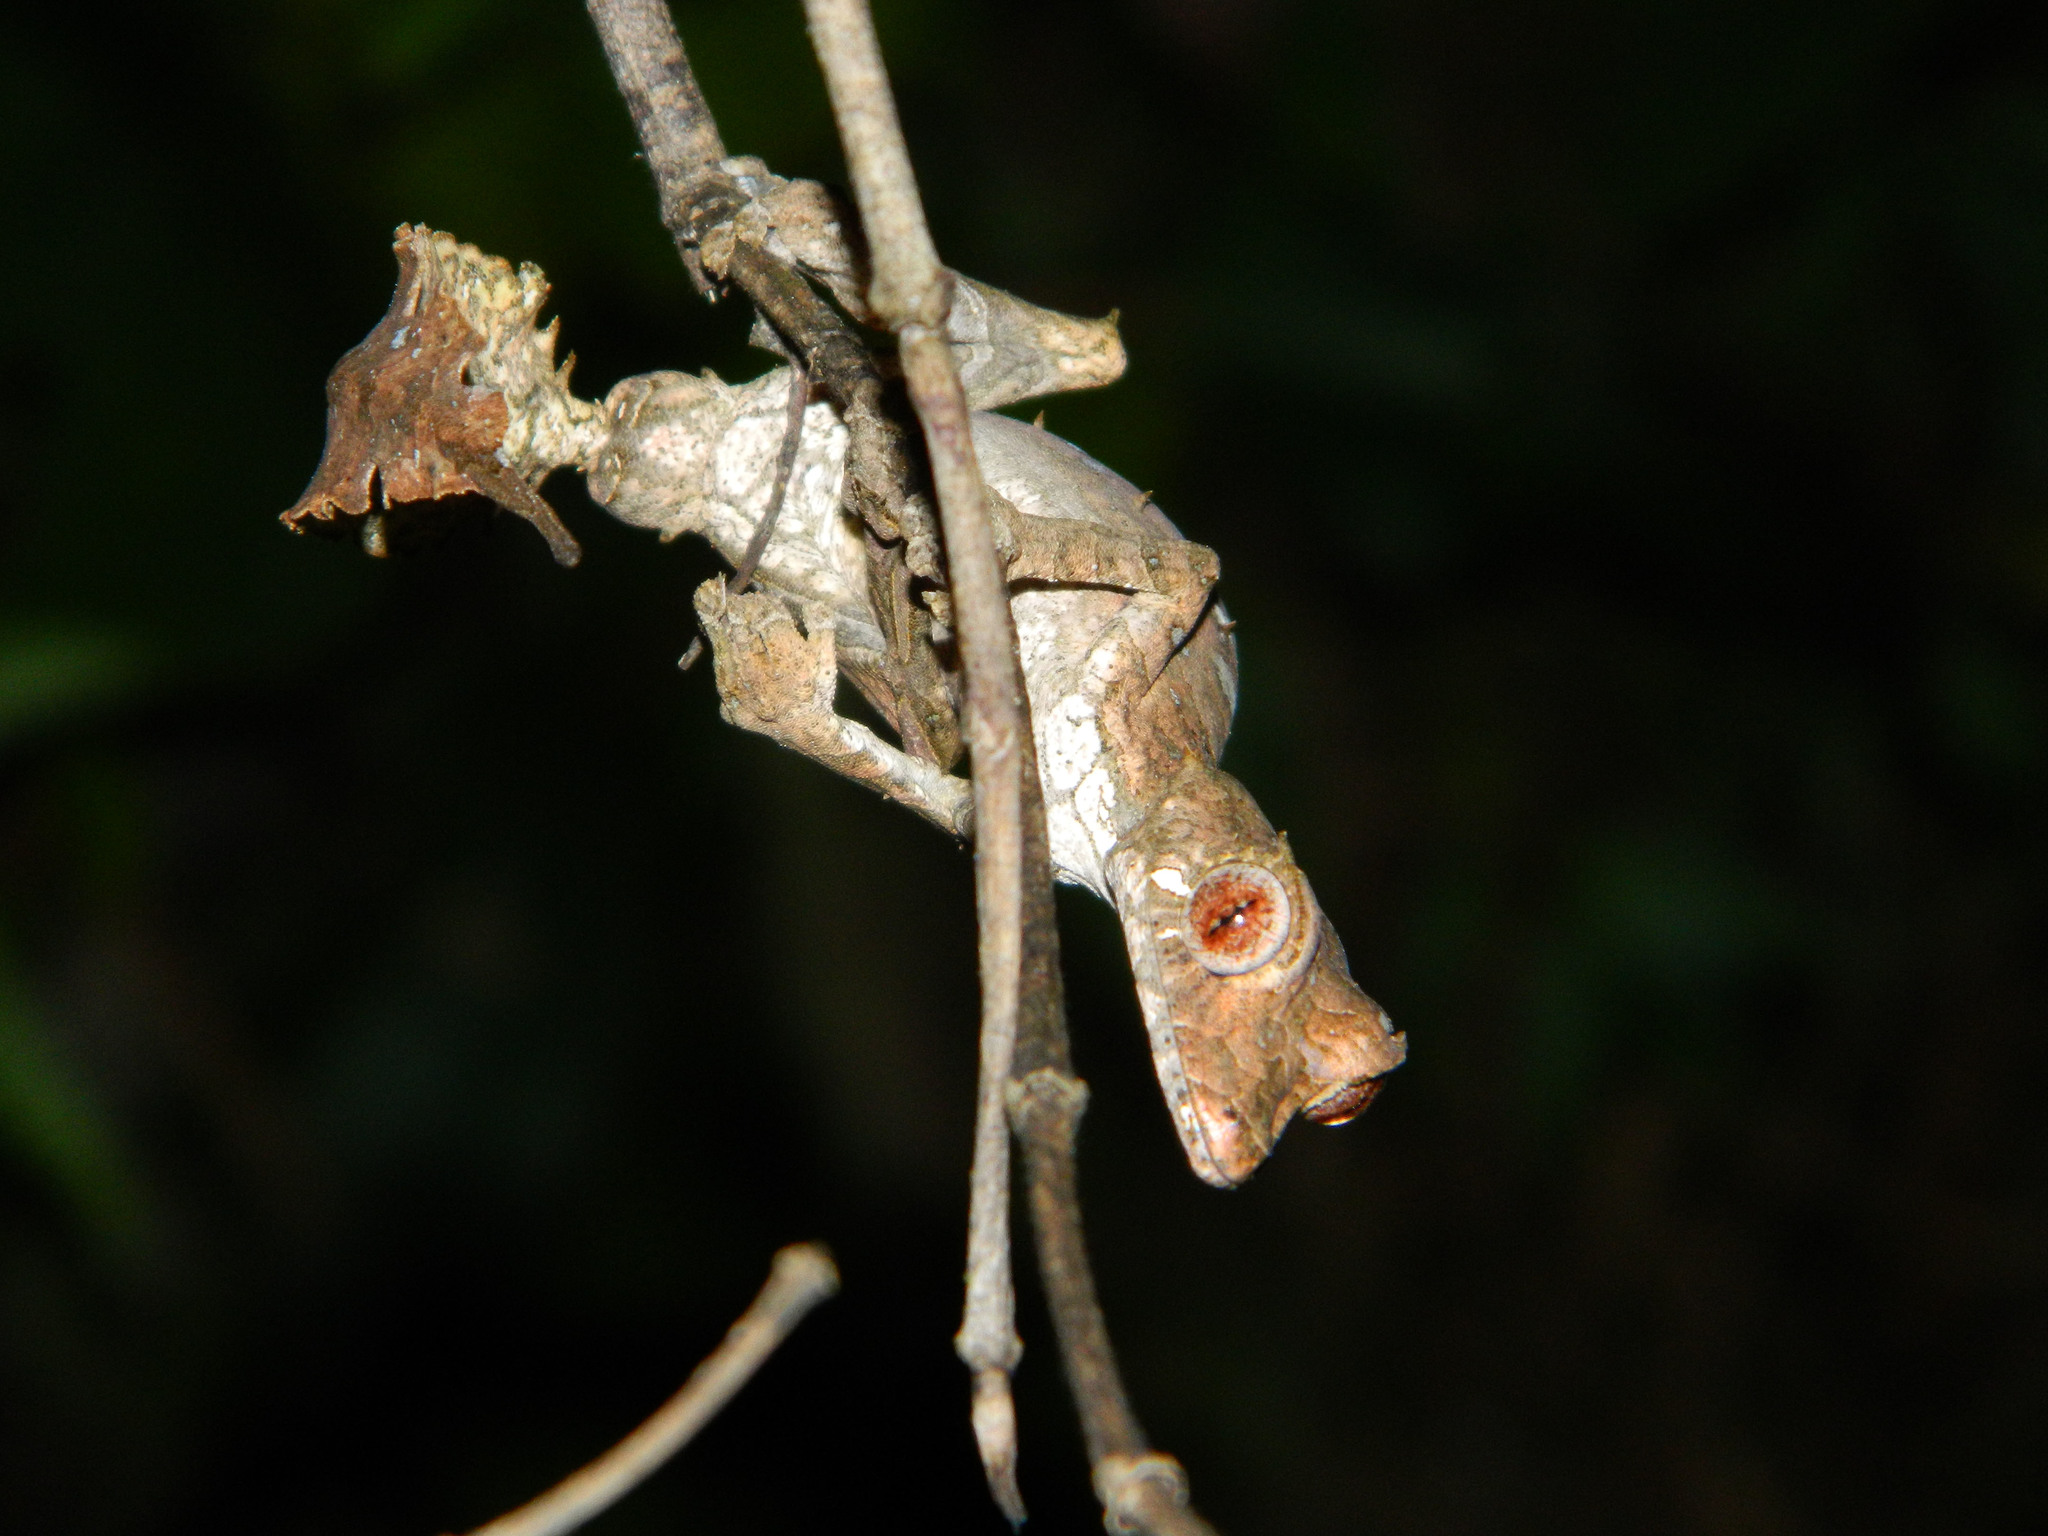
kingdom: Animalia
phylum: Chordata
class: Squamata
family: Gekkonidae
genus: Uroplatus
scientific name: Uroplatus phantasticus
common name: Phantastic leaf-tailed gecko
